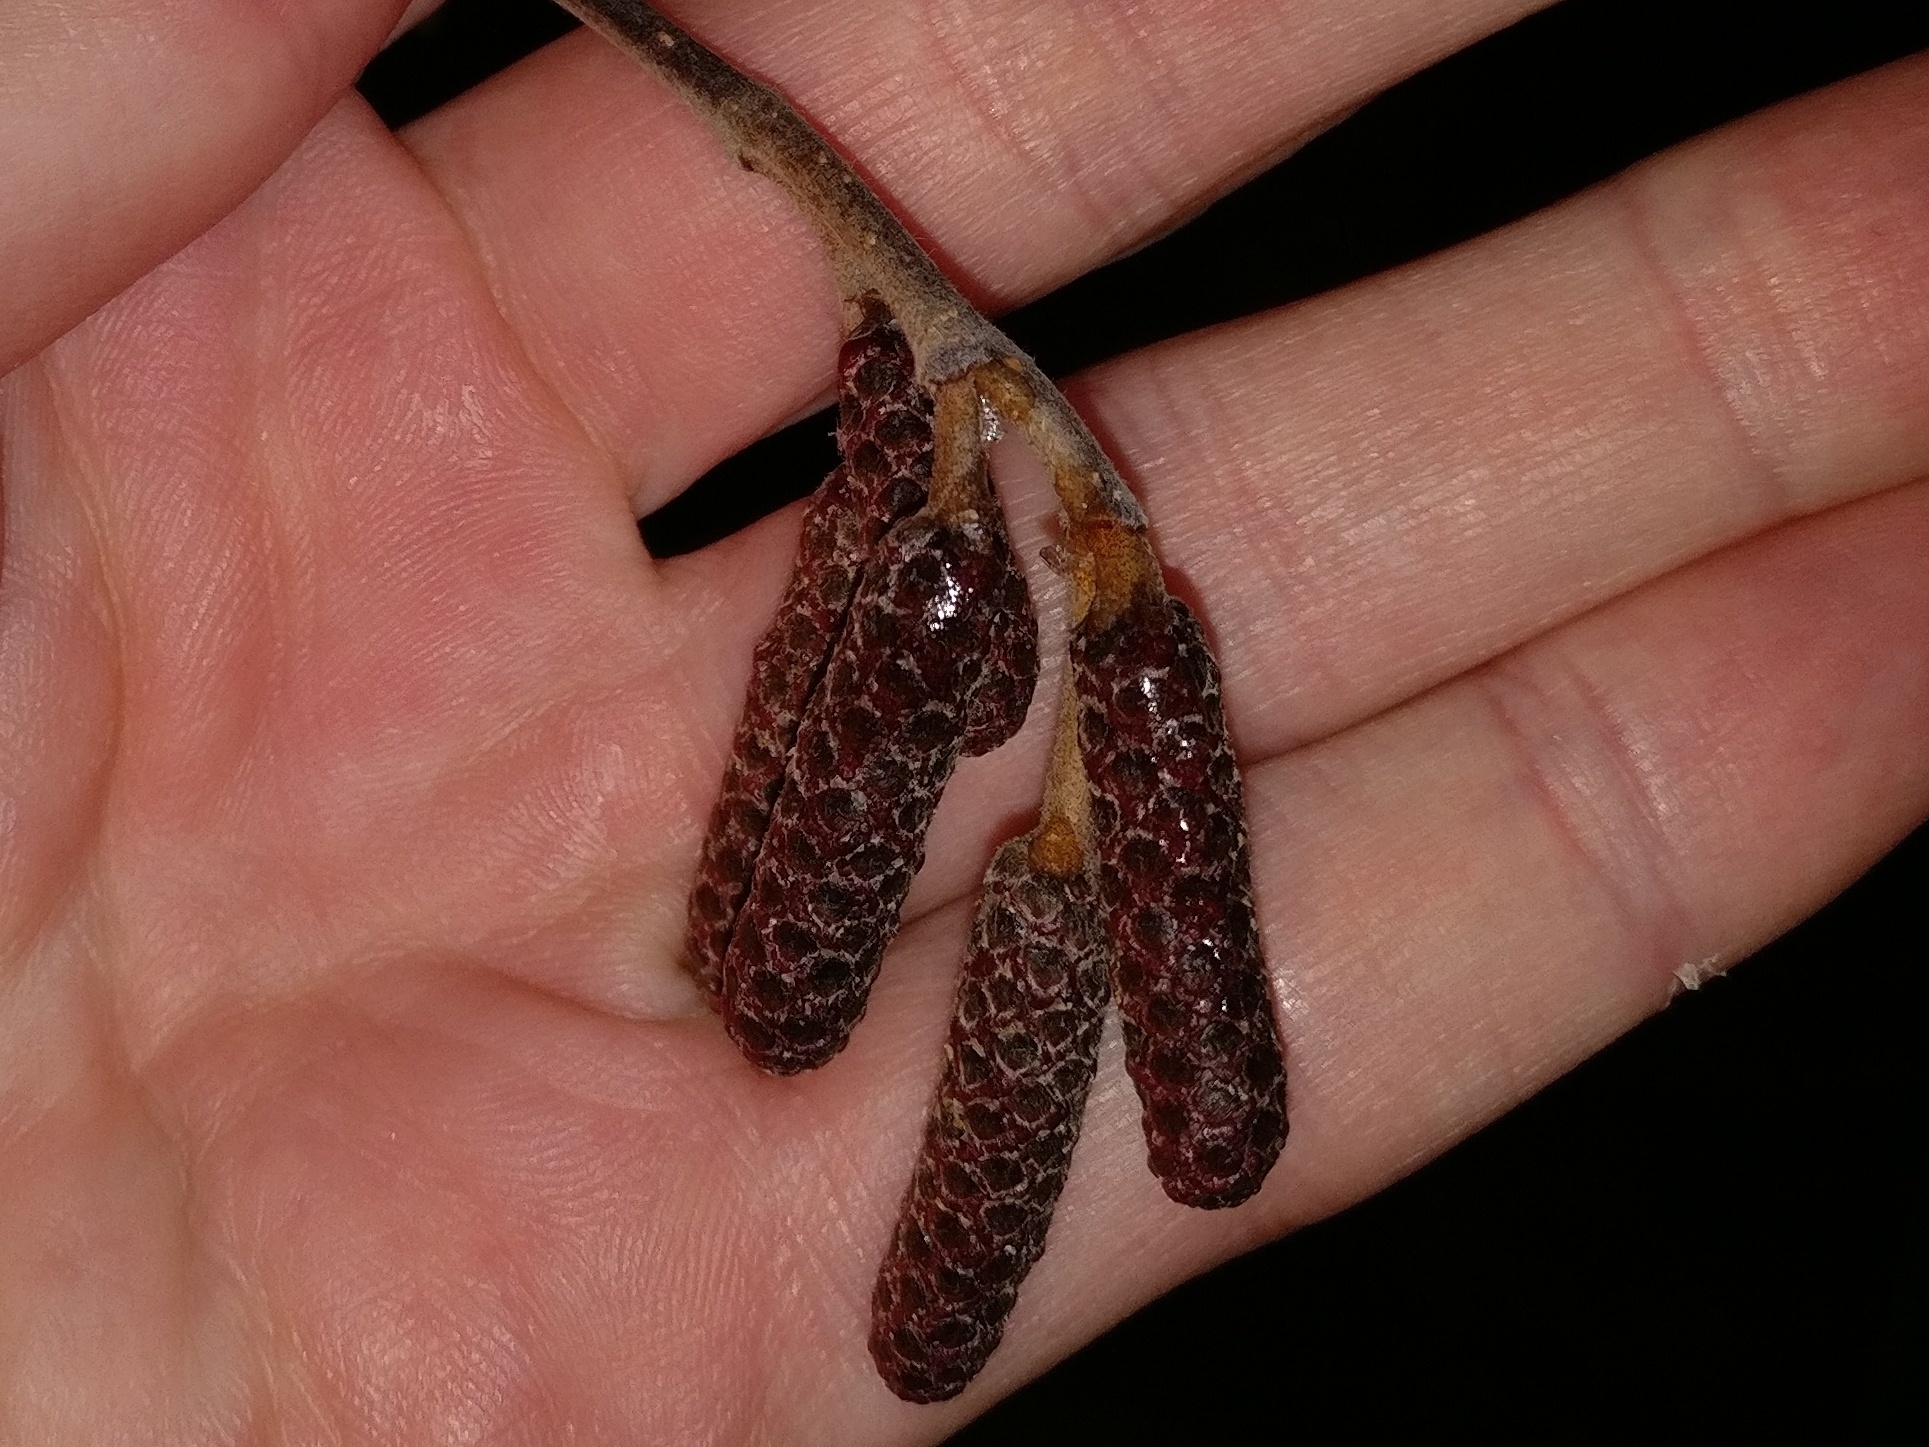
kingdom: Plantae
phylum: Tracheophyta
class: Magnoliopsida
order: Fagales
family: Betulaceae
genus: Alnus
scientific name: Alnus glutinosa
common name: Black alder
